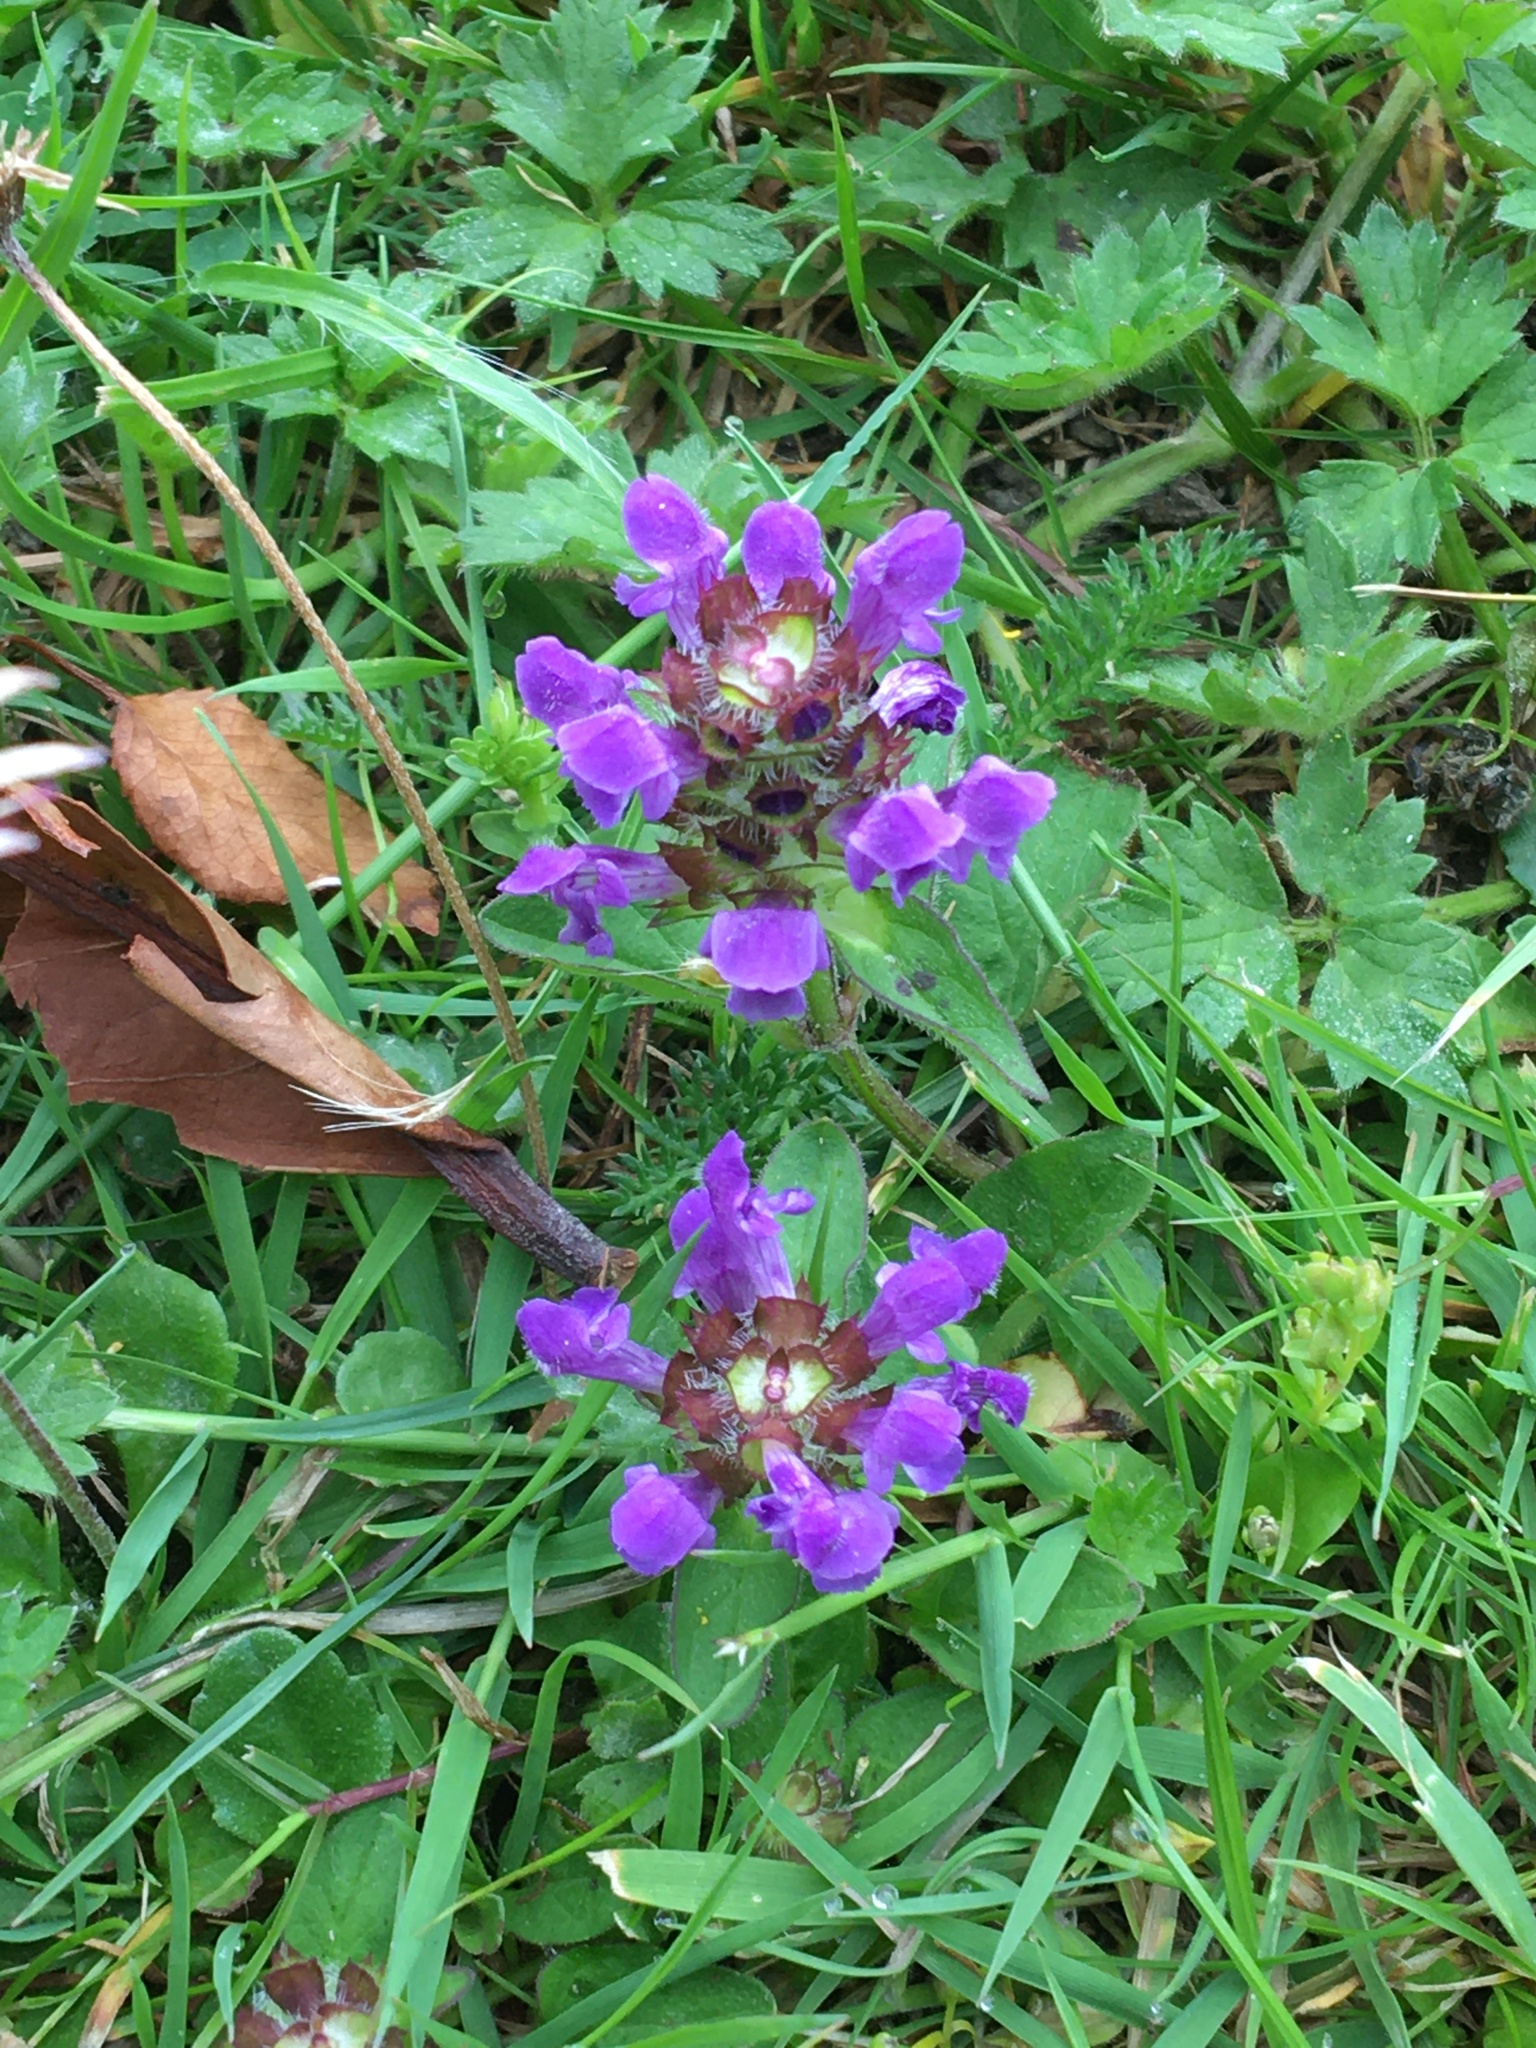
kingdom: Plantae
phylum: Tracheophyta
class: Magnoliopsida
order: Lamiales
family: Lamiaceae
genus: Prunella
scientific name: Prunella vulgaris
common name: Heal-all
